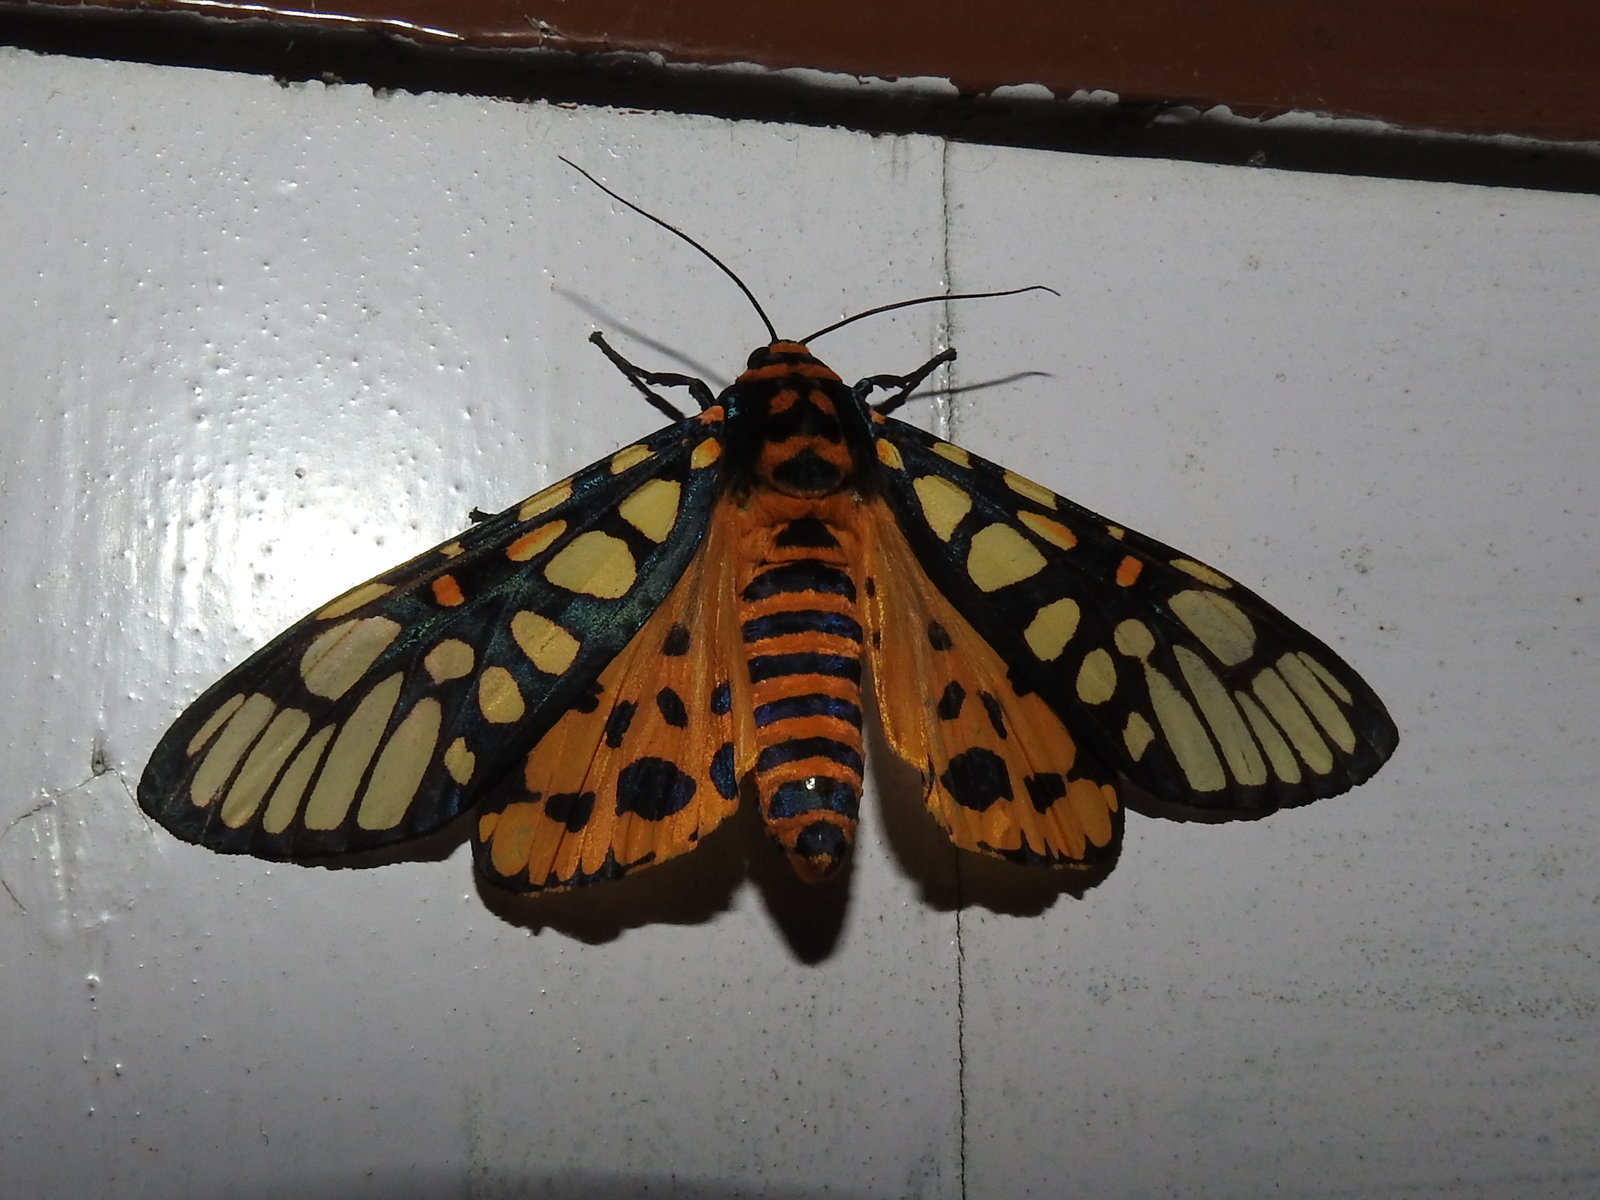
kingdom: Animalia
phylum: Arthropoda
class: Insecta
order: Lepidoptera
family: Erebidae
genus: Aglaomorpha
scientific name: Aglaomorpha plagiata
